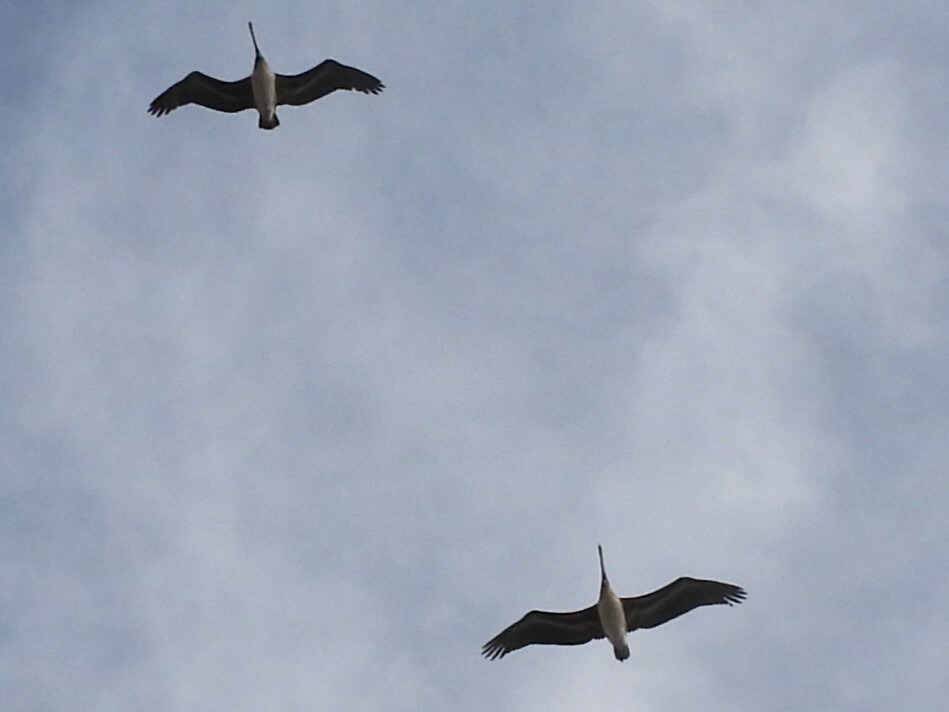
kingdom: Animalia
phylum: Chordata
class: Aves
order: Pelecaniformes
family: Pelecanidae
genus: Pelecanus
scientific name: Pelecanus occidentalis
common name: Brown pelican
